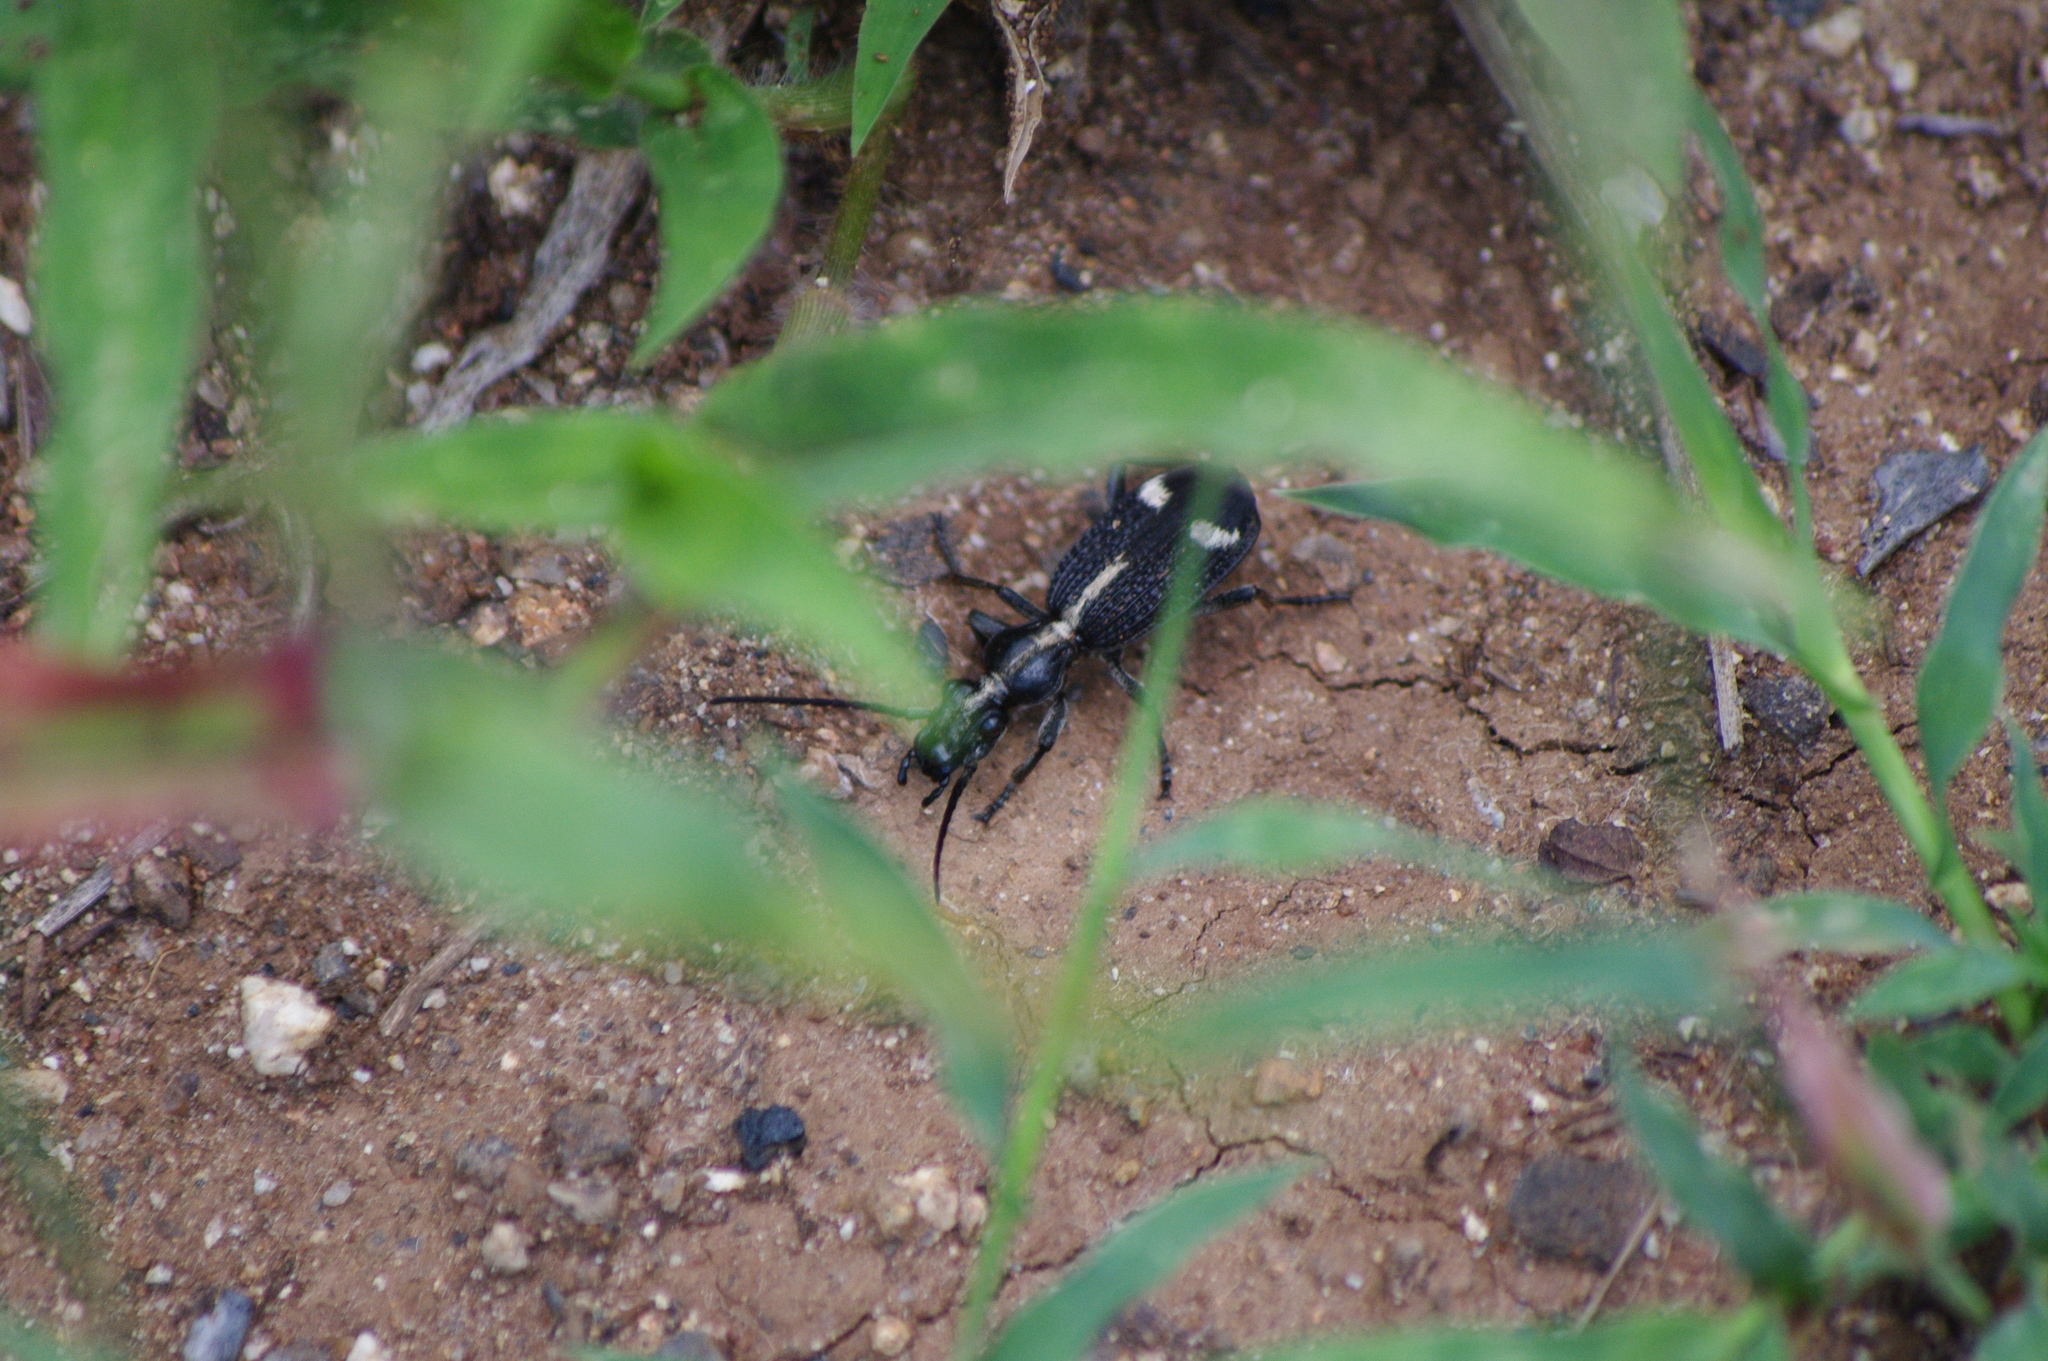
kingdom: Animalia
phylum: Arthropoda
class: Insecta
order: Coleoptera
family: Carabidae
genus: Cypholoba
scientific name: Cypholoba graphipteroides
